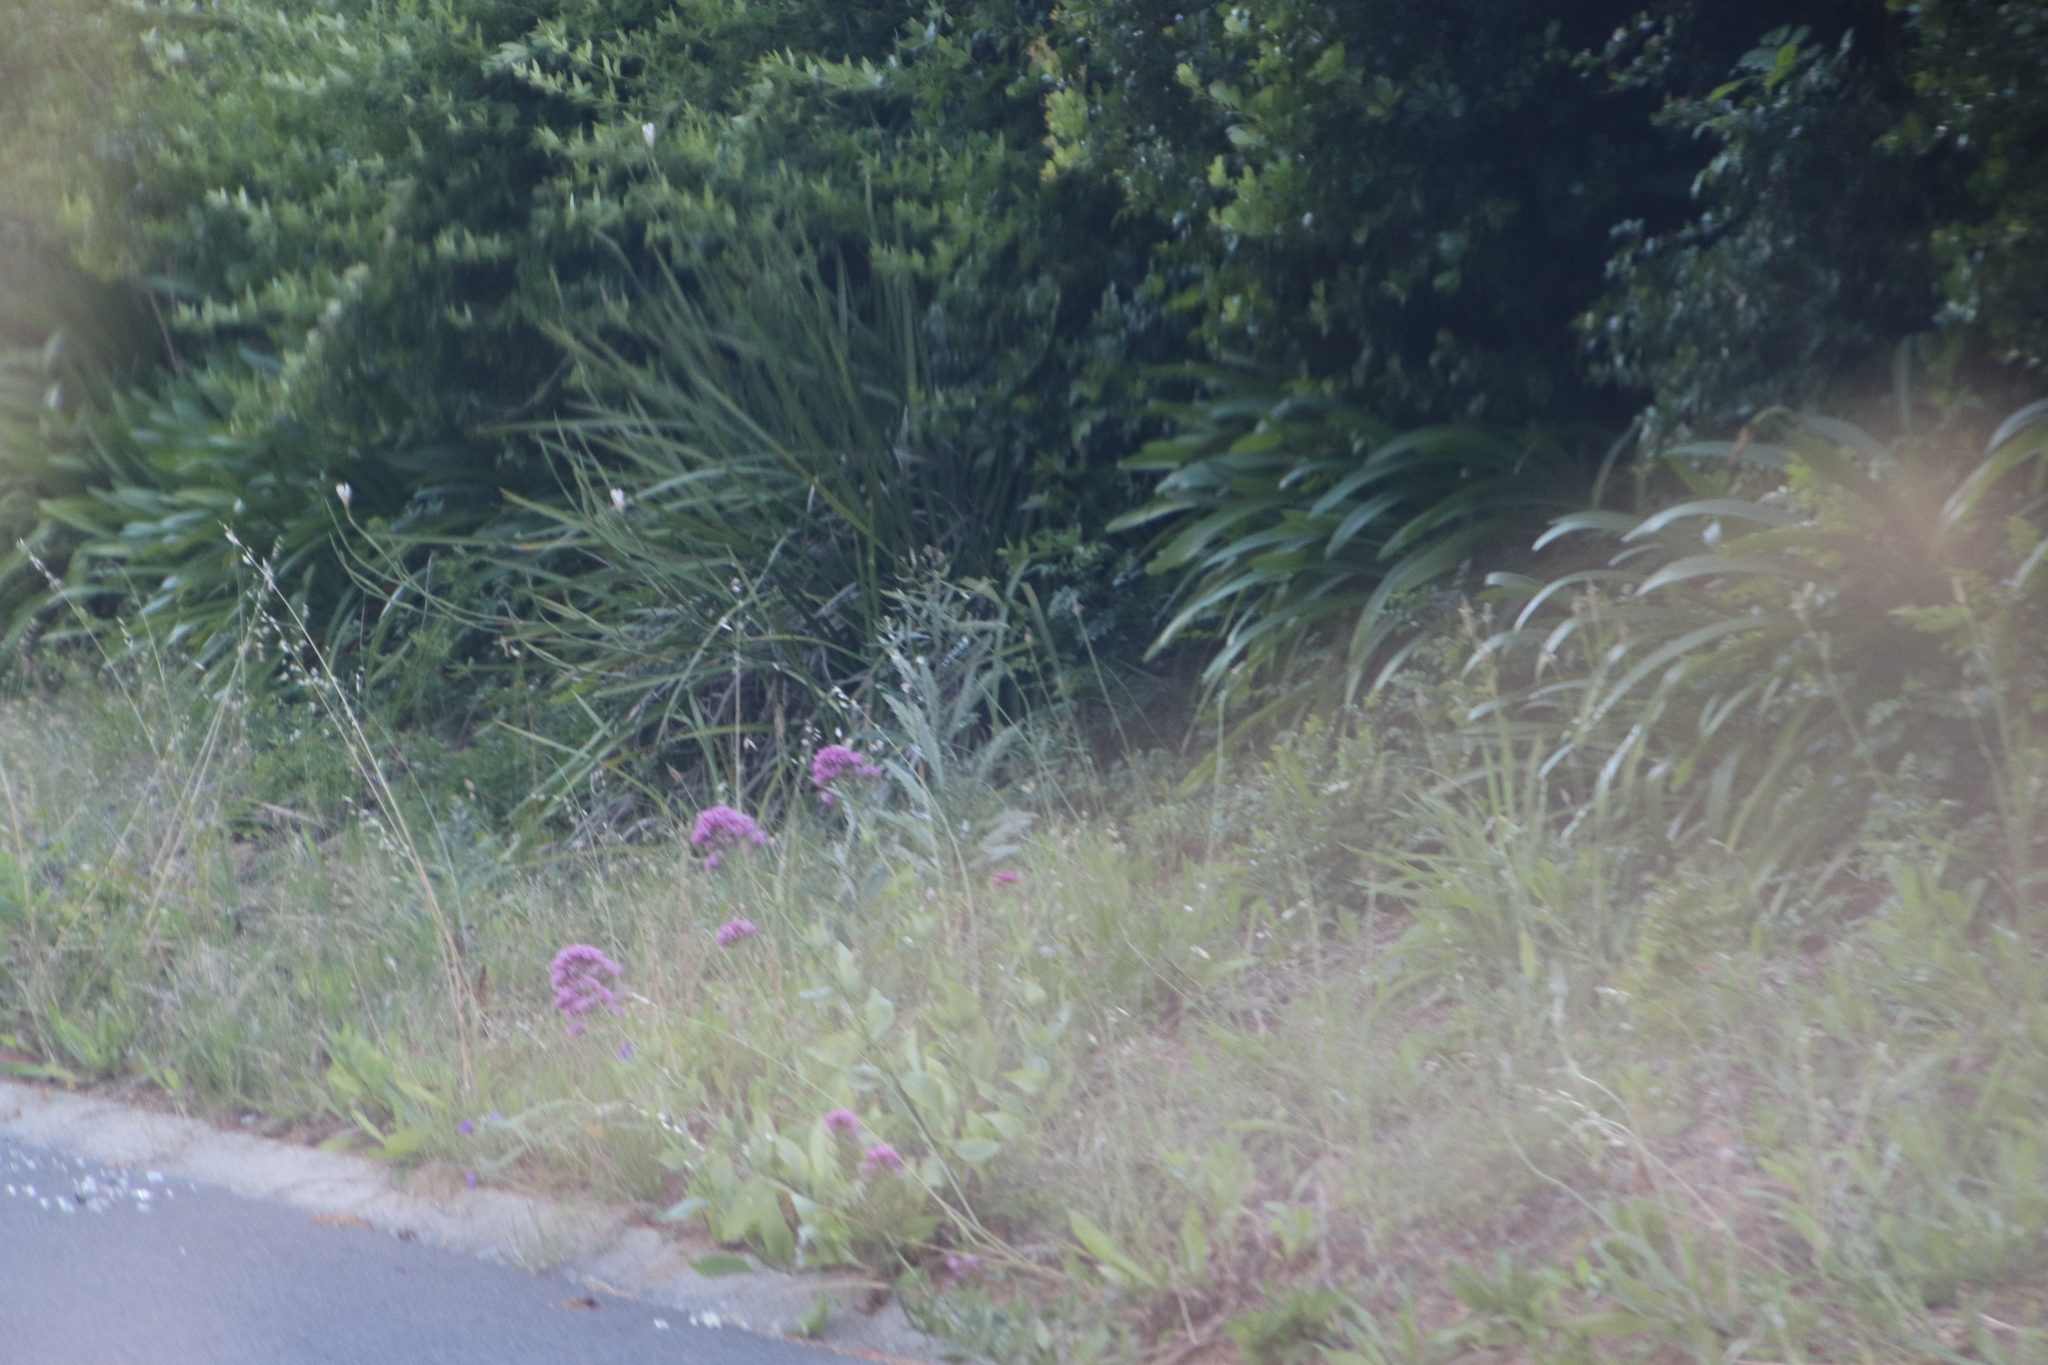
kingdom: Plantae
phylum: Tracheophyta
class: Magnoliopsida
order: Dipsacales
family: Caprifoliaceae
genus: Centranthus
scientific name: Centranthus ruber
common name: Red valerian
